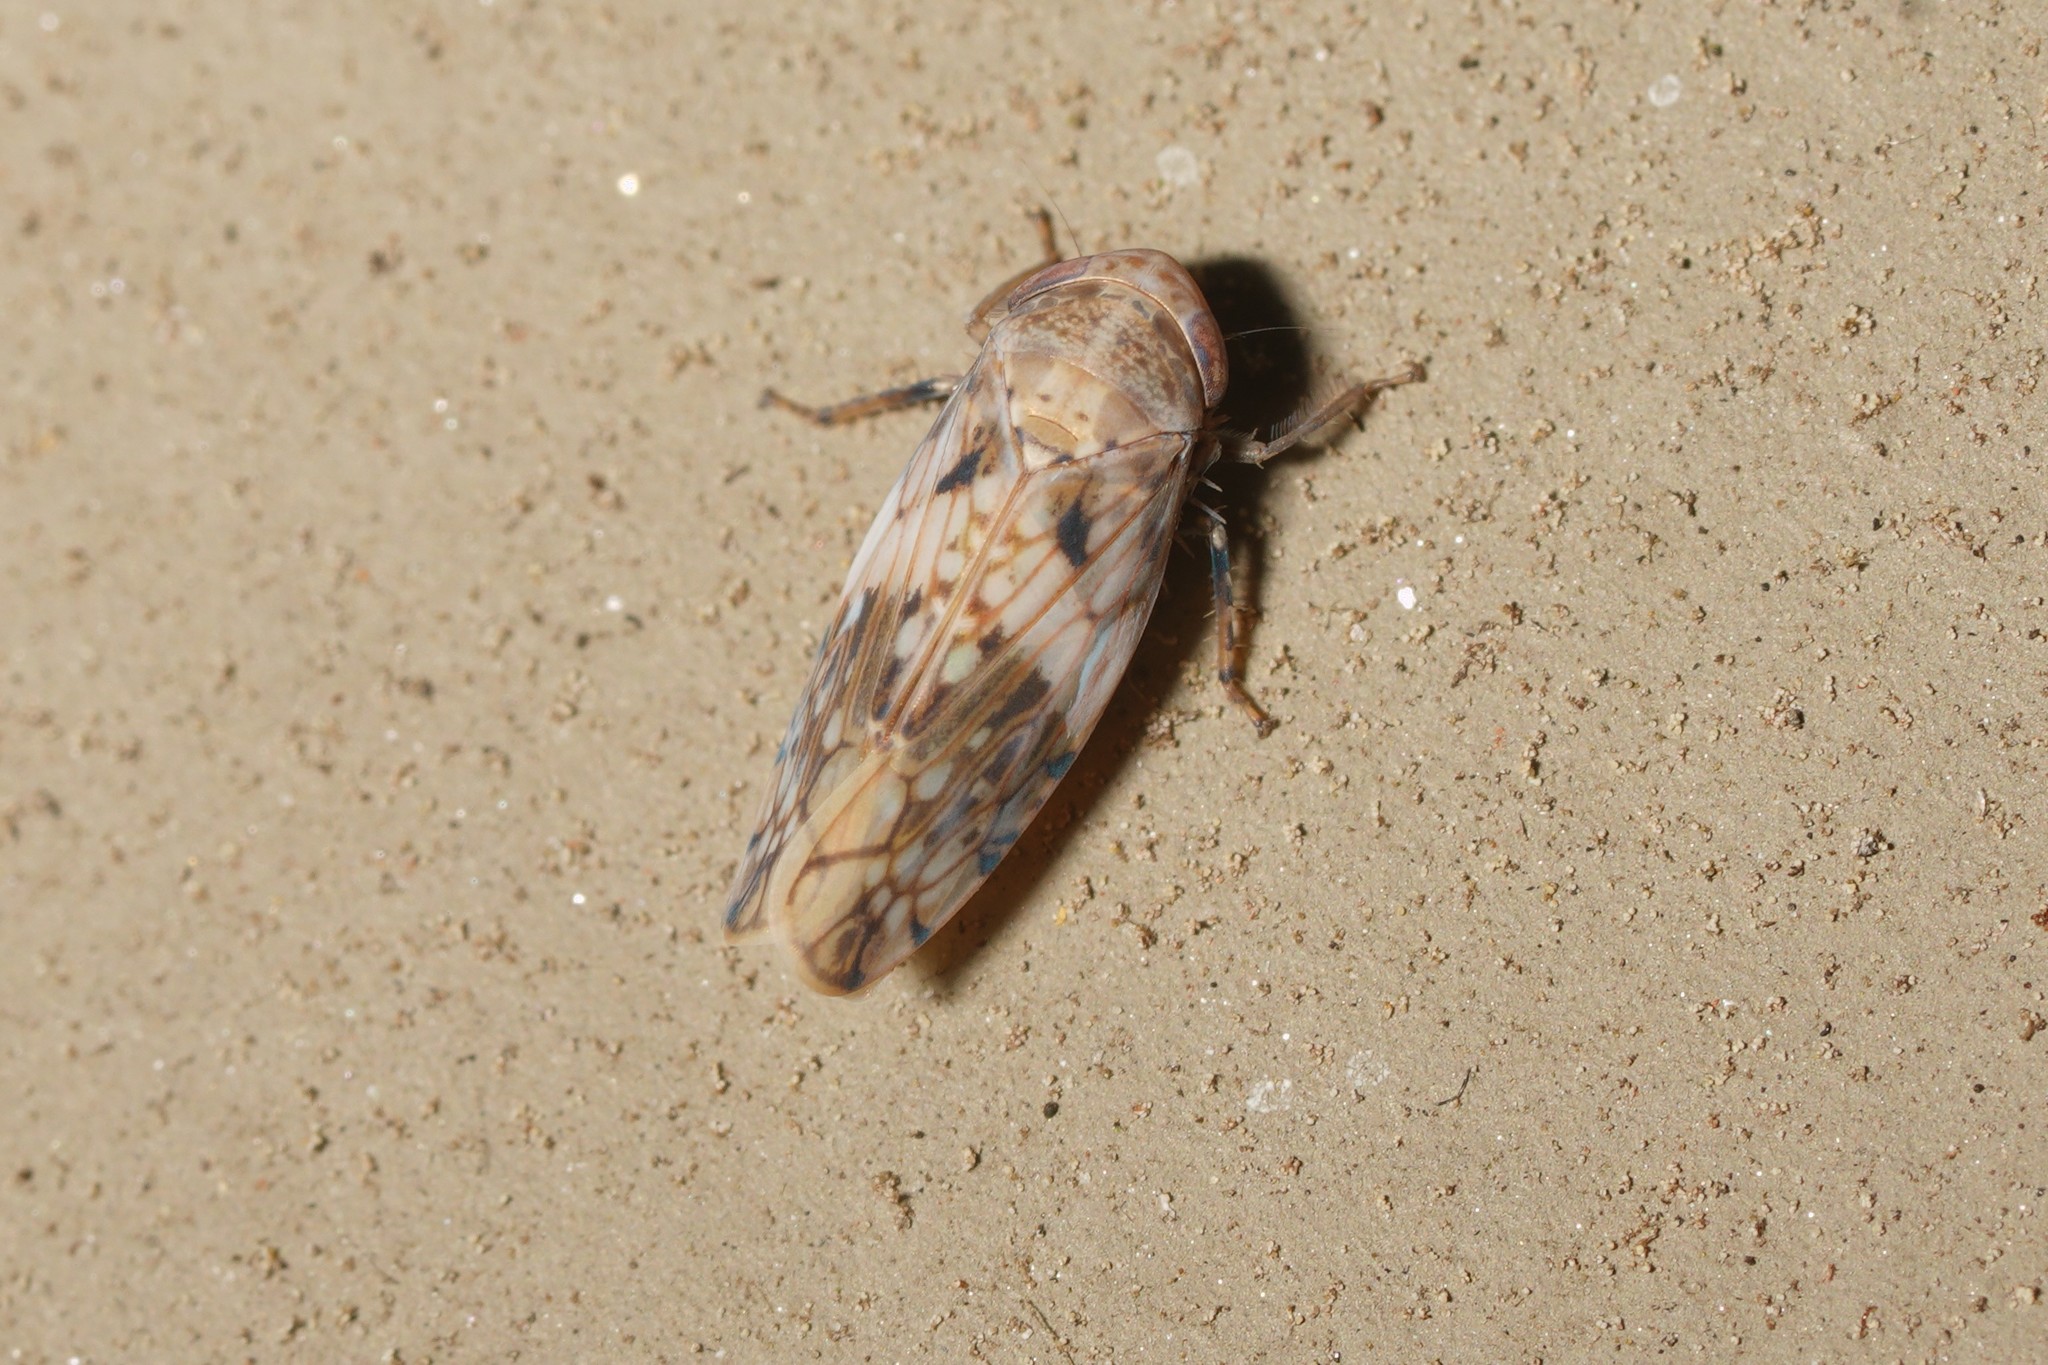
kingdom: Animalia
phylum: Arthropoda
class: Insecta
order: Hemiptera
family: Cicadellidae
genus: Menosoma
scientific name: Menosoma cinctum
